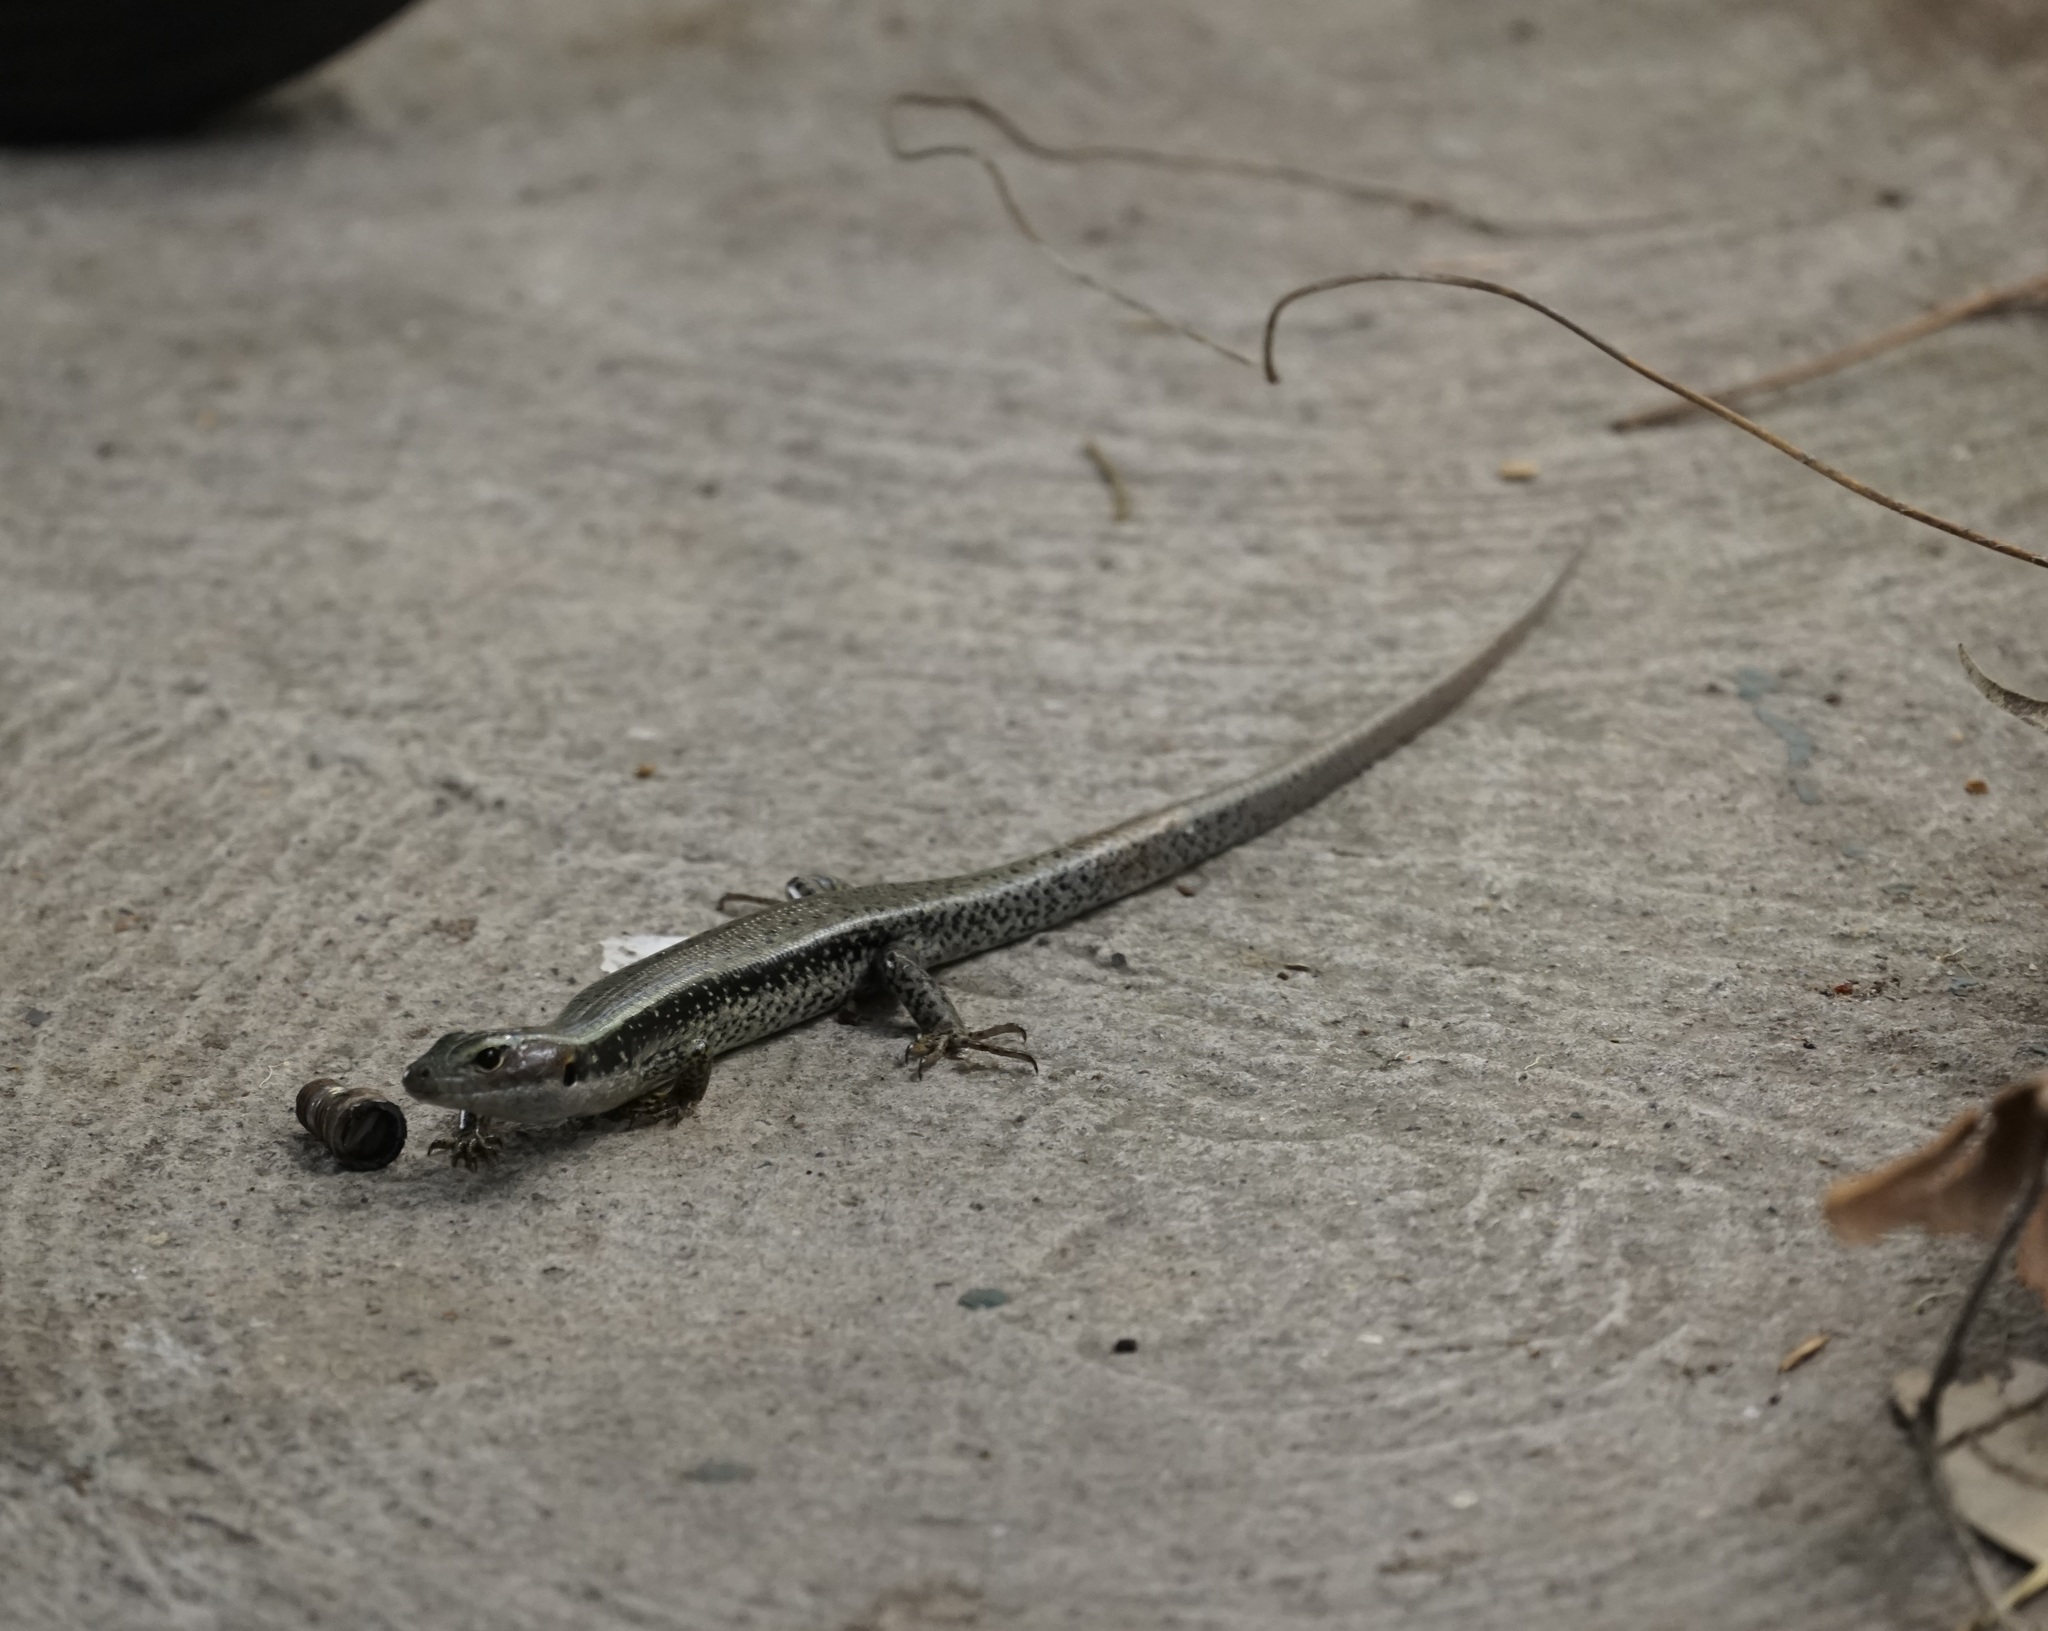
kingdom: Animalia
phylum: Chordata
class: Squamata
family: Scincidae
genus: Eulamprus
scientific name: Eulamprus quoyii
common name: Eastern water skink
